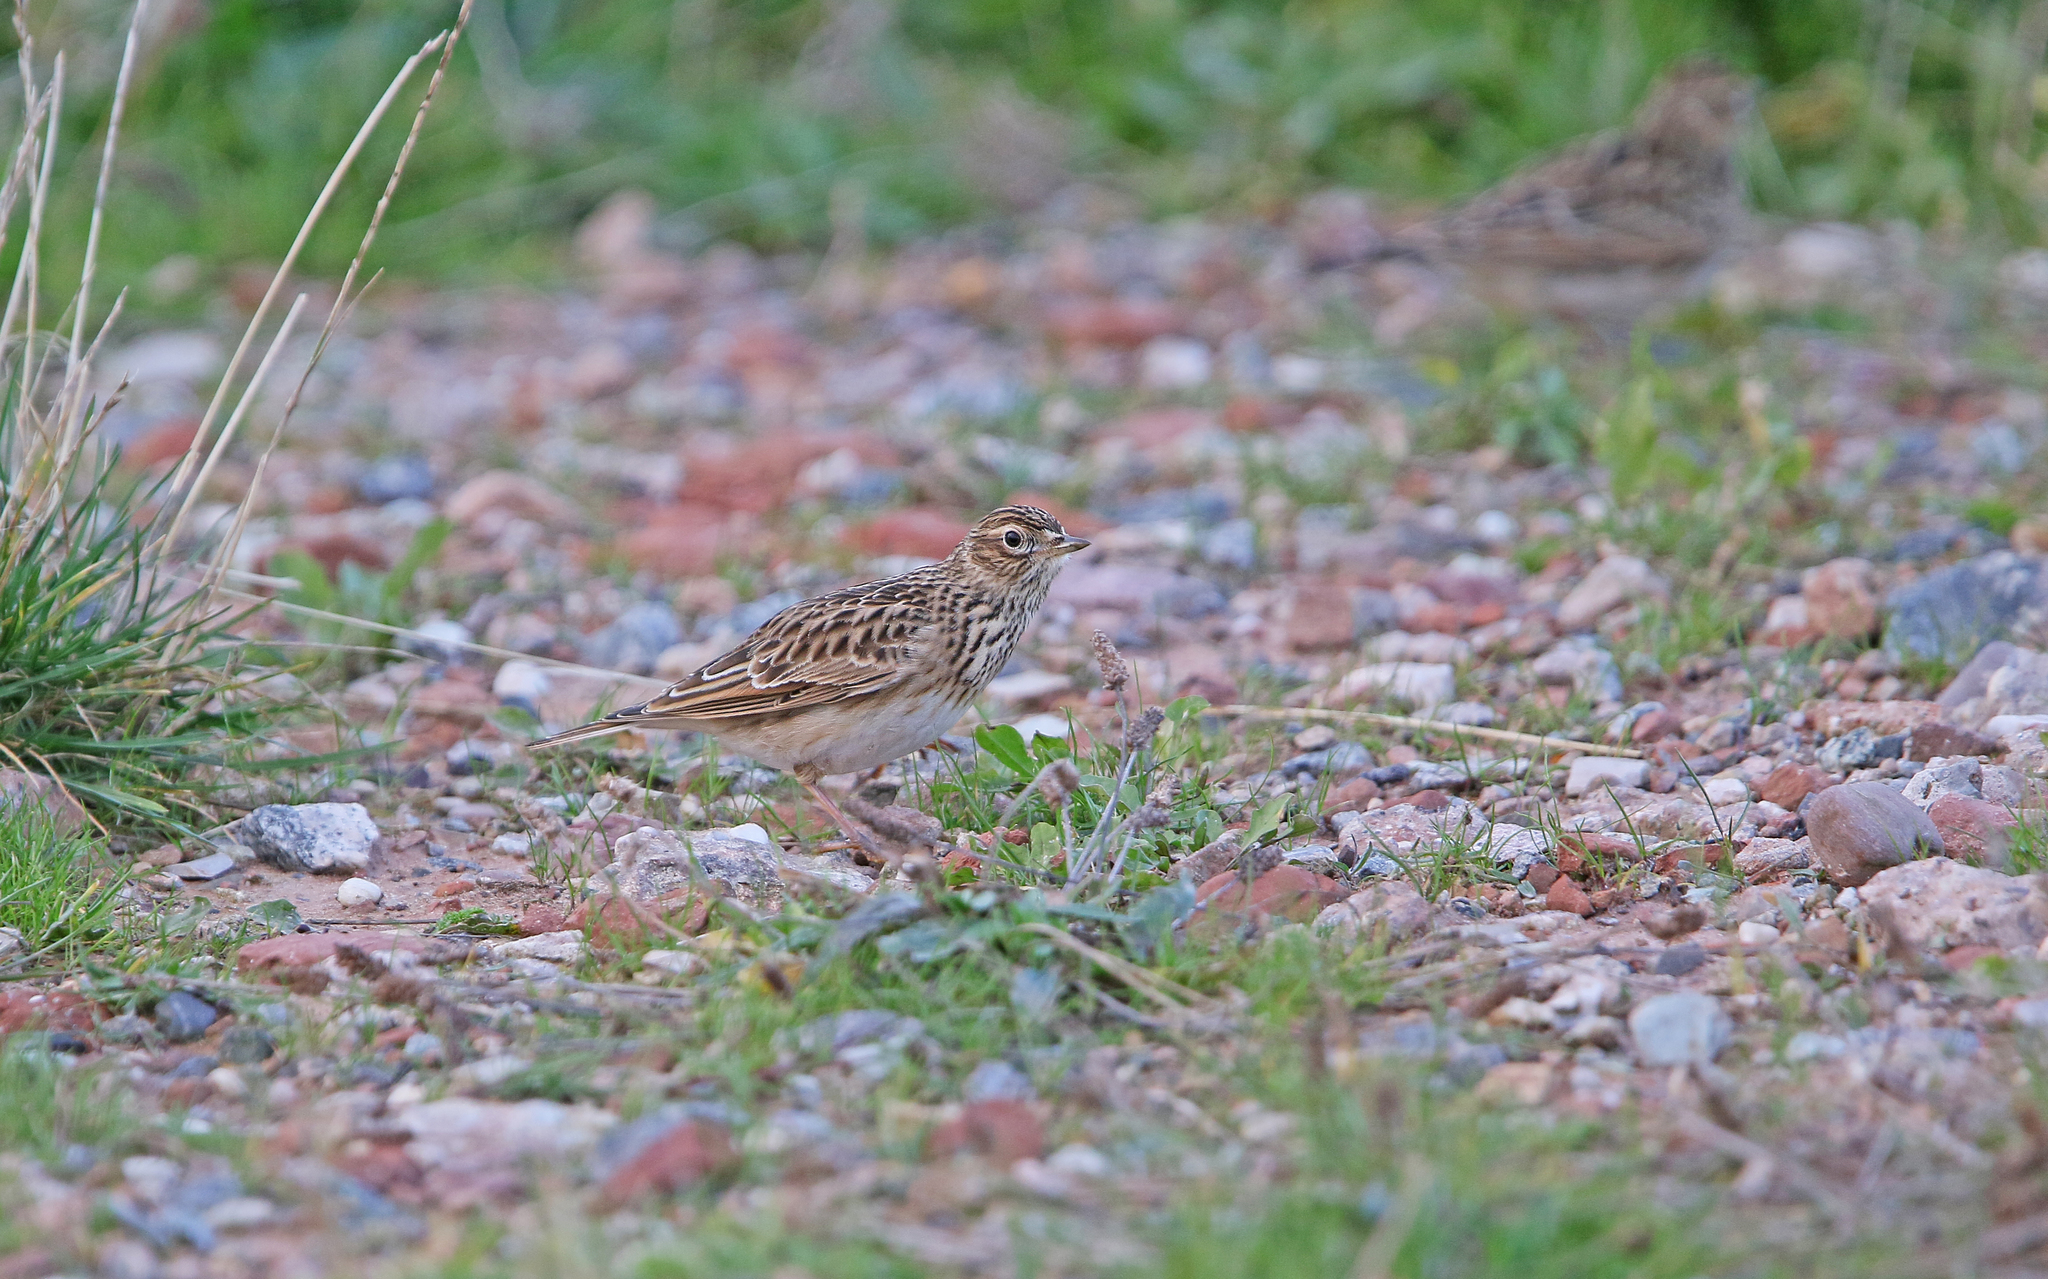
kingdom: Animalia
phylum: Chordata
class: Aves
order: Passeriformes
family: Alaudidae
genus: Alauda
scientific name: Alauda arvensis
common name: Eurasian skylark
